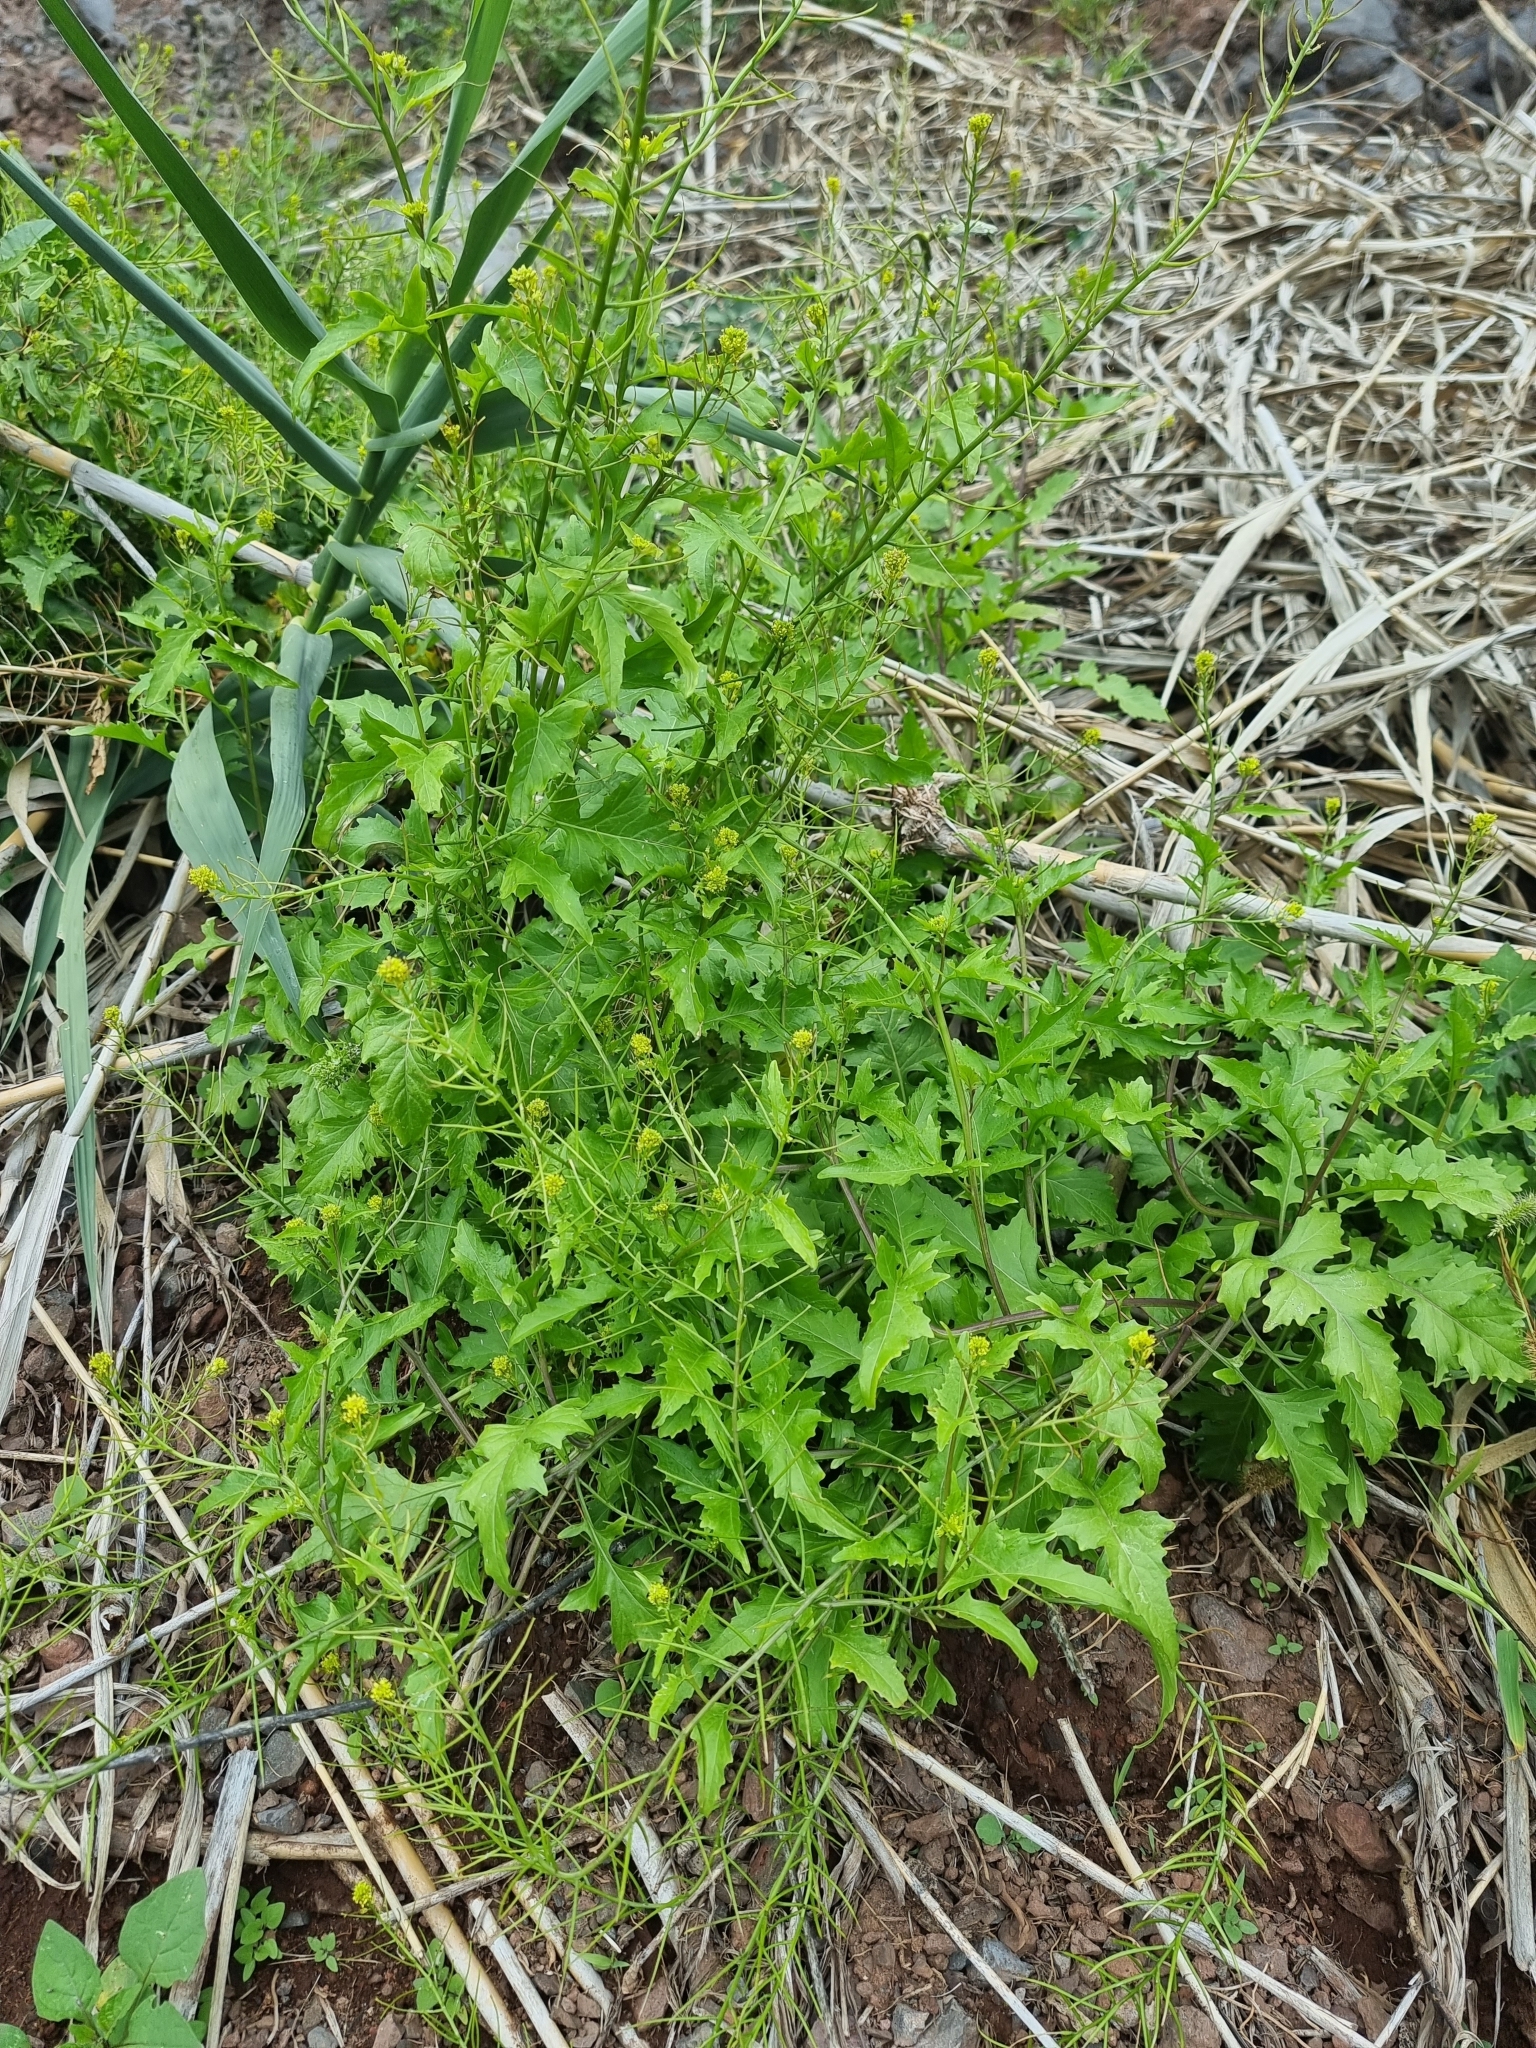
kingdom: Plantae
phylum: Tracheophyta
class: Magnoliopsida
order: Brassicales
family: Brassicaceae
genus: Sisymbrium
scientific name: Sisymbrium erysimoides
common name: French rocket
